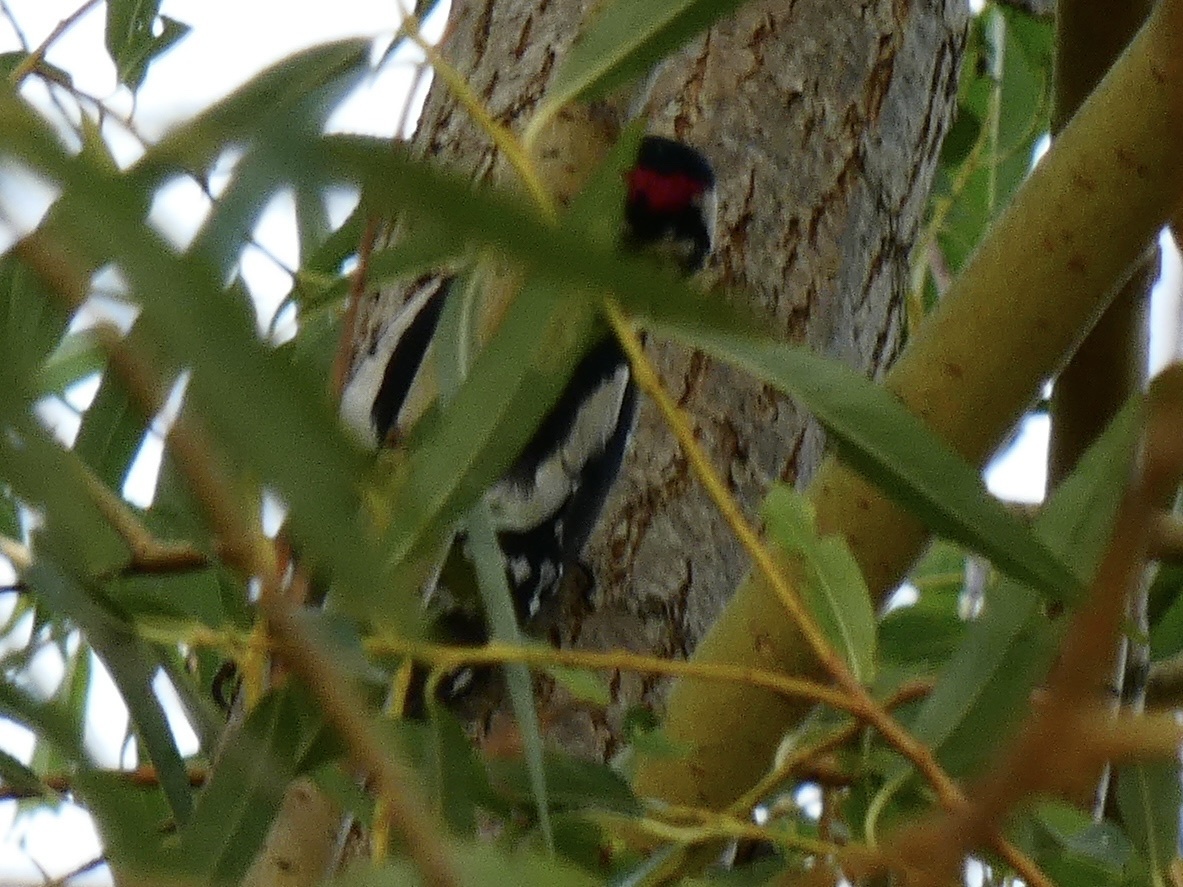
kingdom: Animalia
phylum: Chordata
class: Aves
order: Piciformes
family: Picidae
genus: Dendrocopos
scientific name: Dendrocopos major
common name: Great spotted woodpecker
